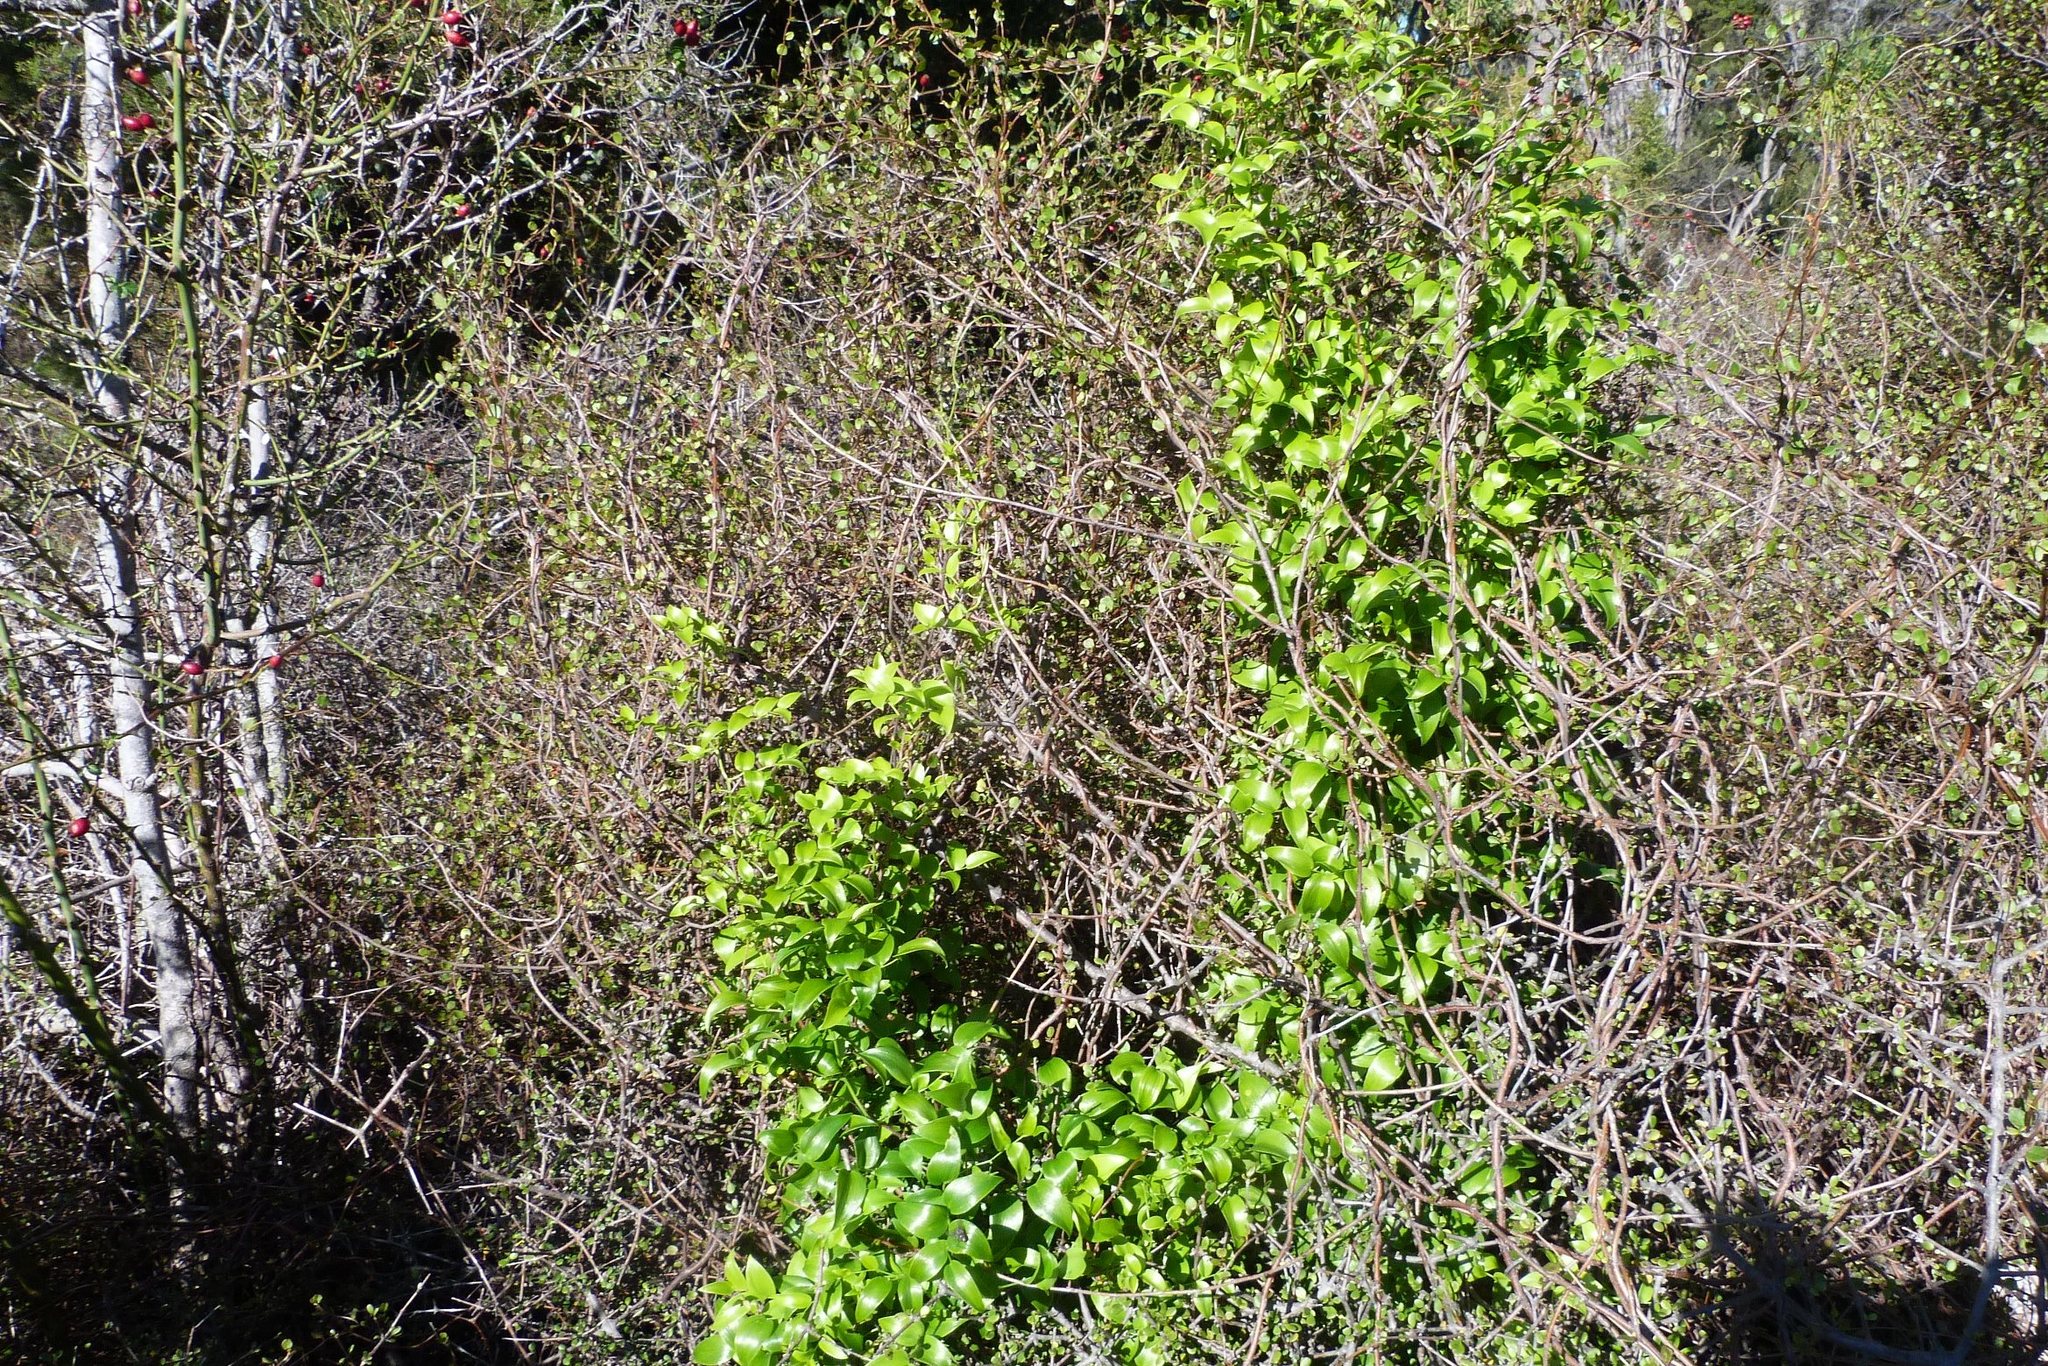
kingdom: Plantae
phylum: Tracheophyta
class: Liliopsida
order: Asparagales
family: Asparagaceae
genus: Asparagus
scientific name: Asparagus asparagoides
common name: African asparagus fern
